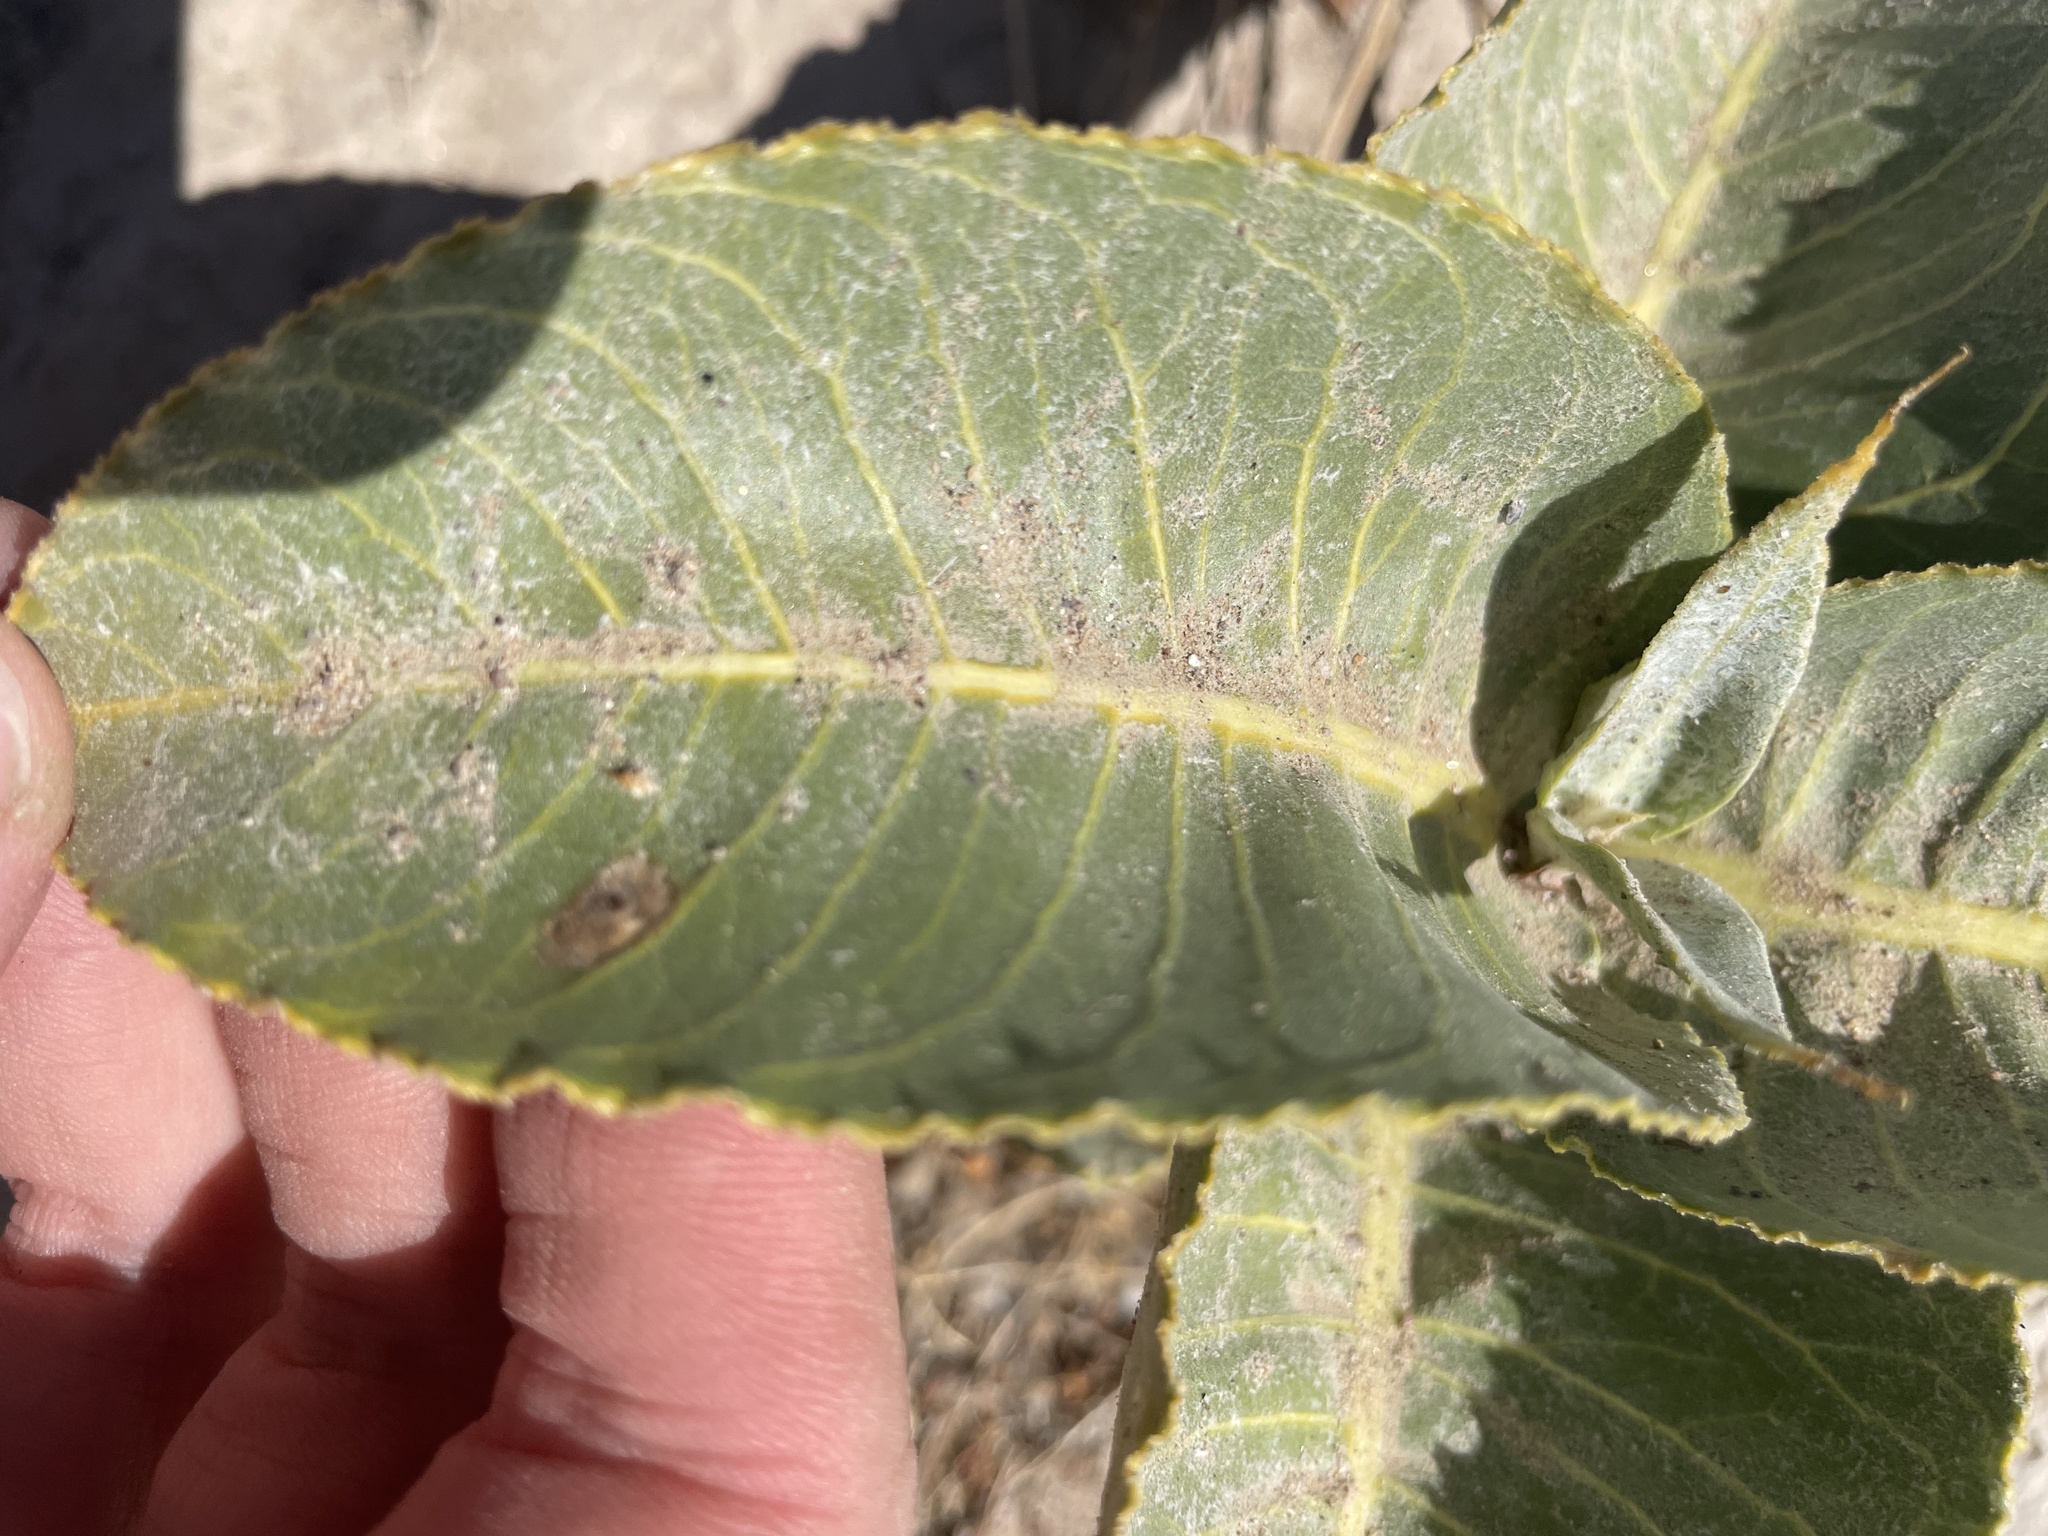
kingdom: Plantae
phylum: Tracheophyta
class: Magnoliopsida
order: Gentianales
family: Apocynaceae
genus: Asclepias
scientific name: Asclepias erosa
